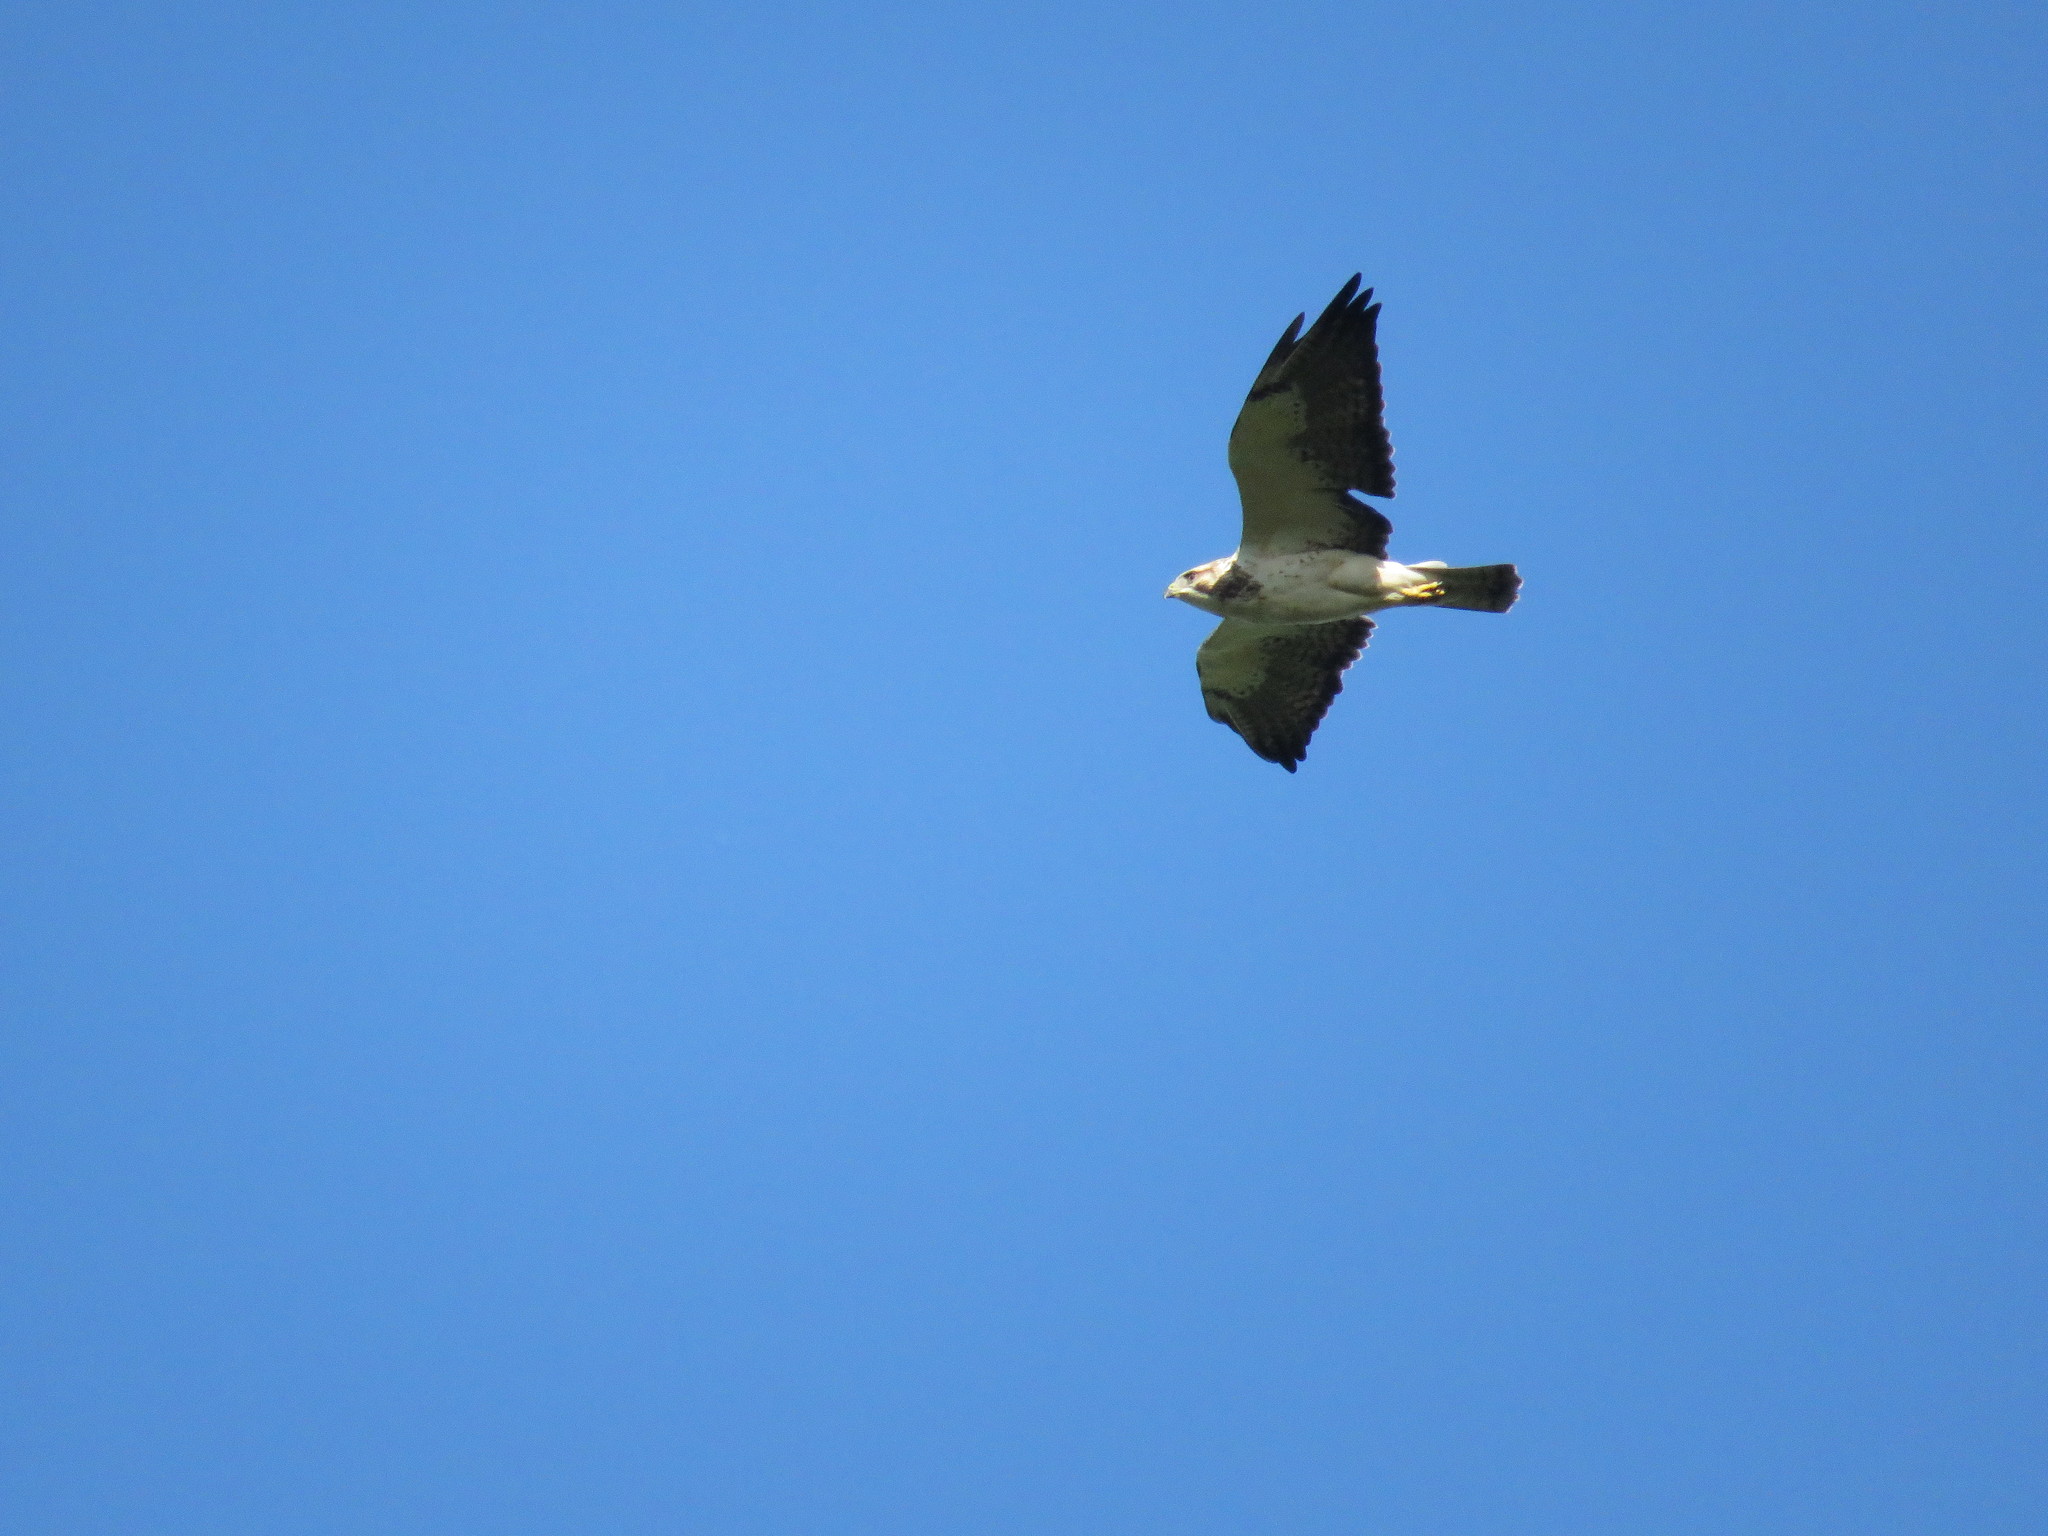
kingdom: Animalia
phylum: Chordata
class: Aves
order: Accipitriformes
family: Accipitridae
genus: Buteo
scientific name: Buteo swainsoni
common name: Swainson's hawk
